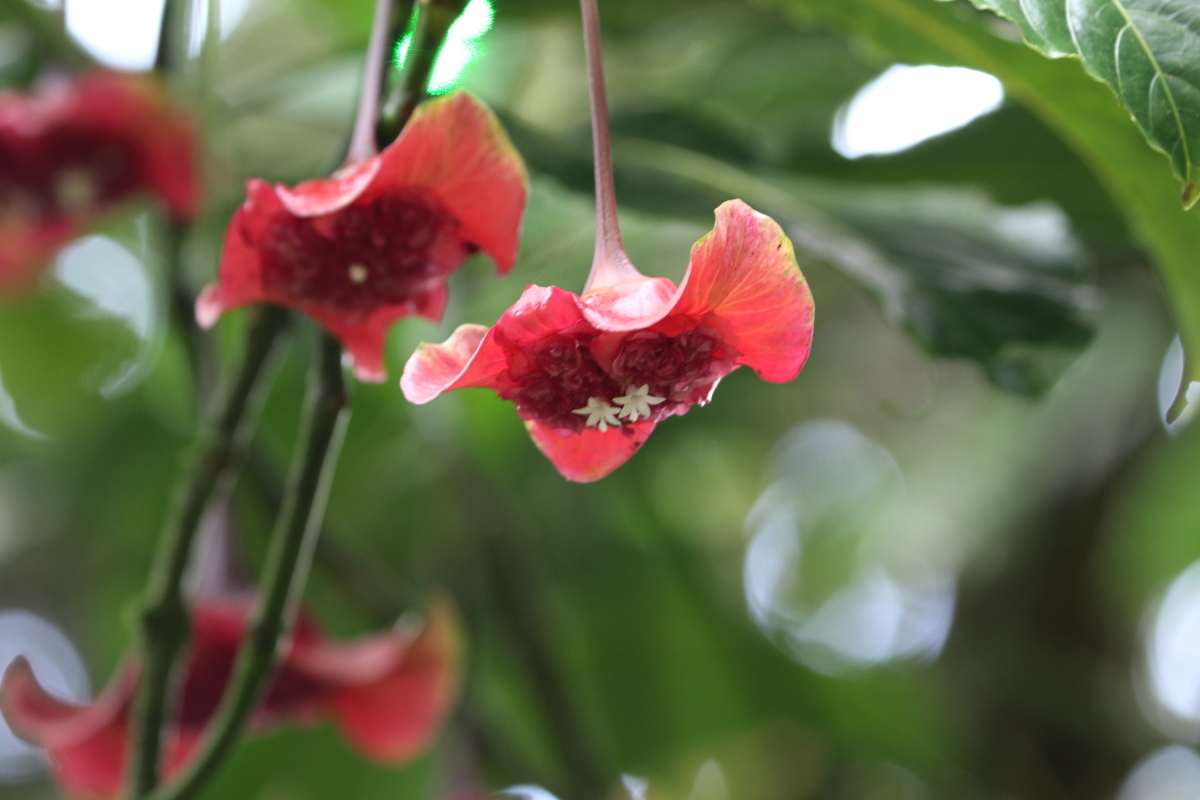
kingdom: Plantae
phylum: Tracheophyta
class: Magnoliopsida
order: Gentianales
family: Rubiaceae
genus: Palicourea
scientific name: Palicourea correae
